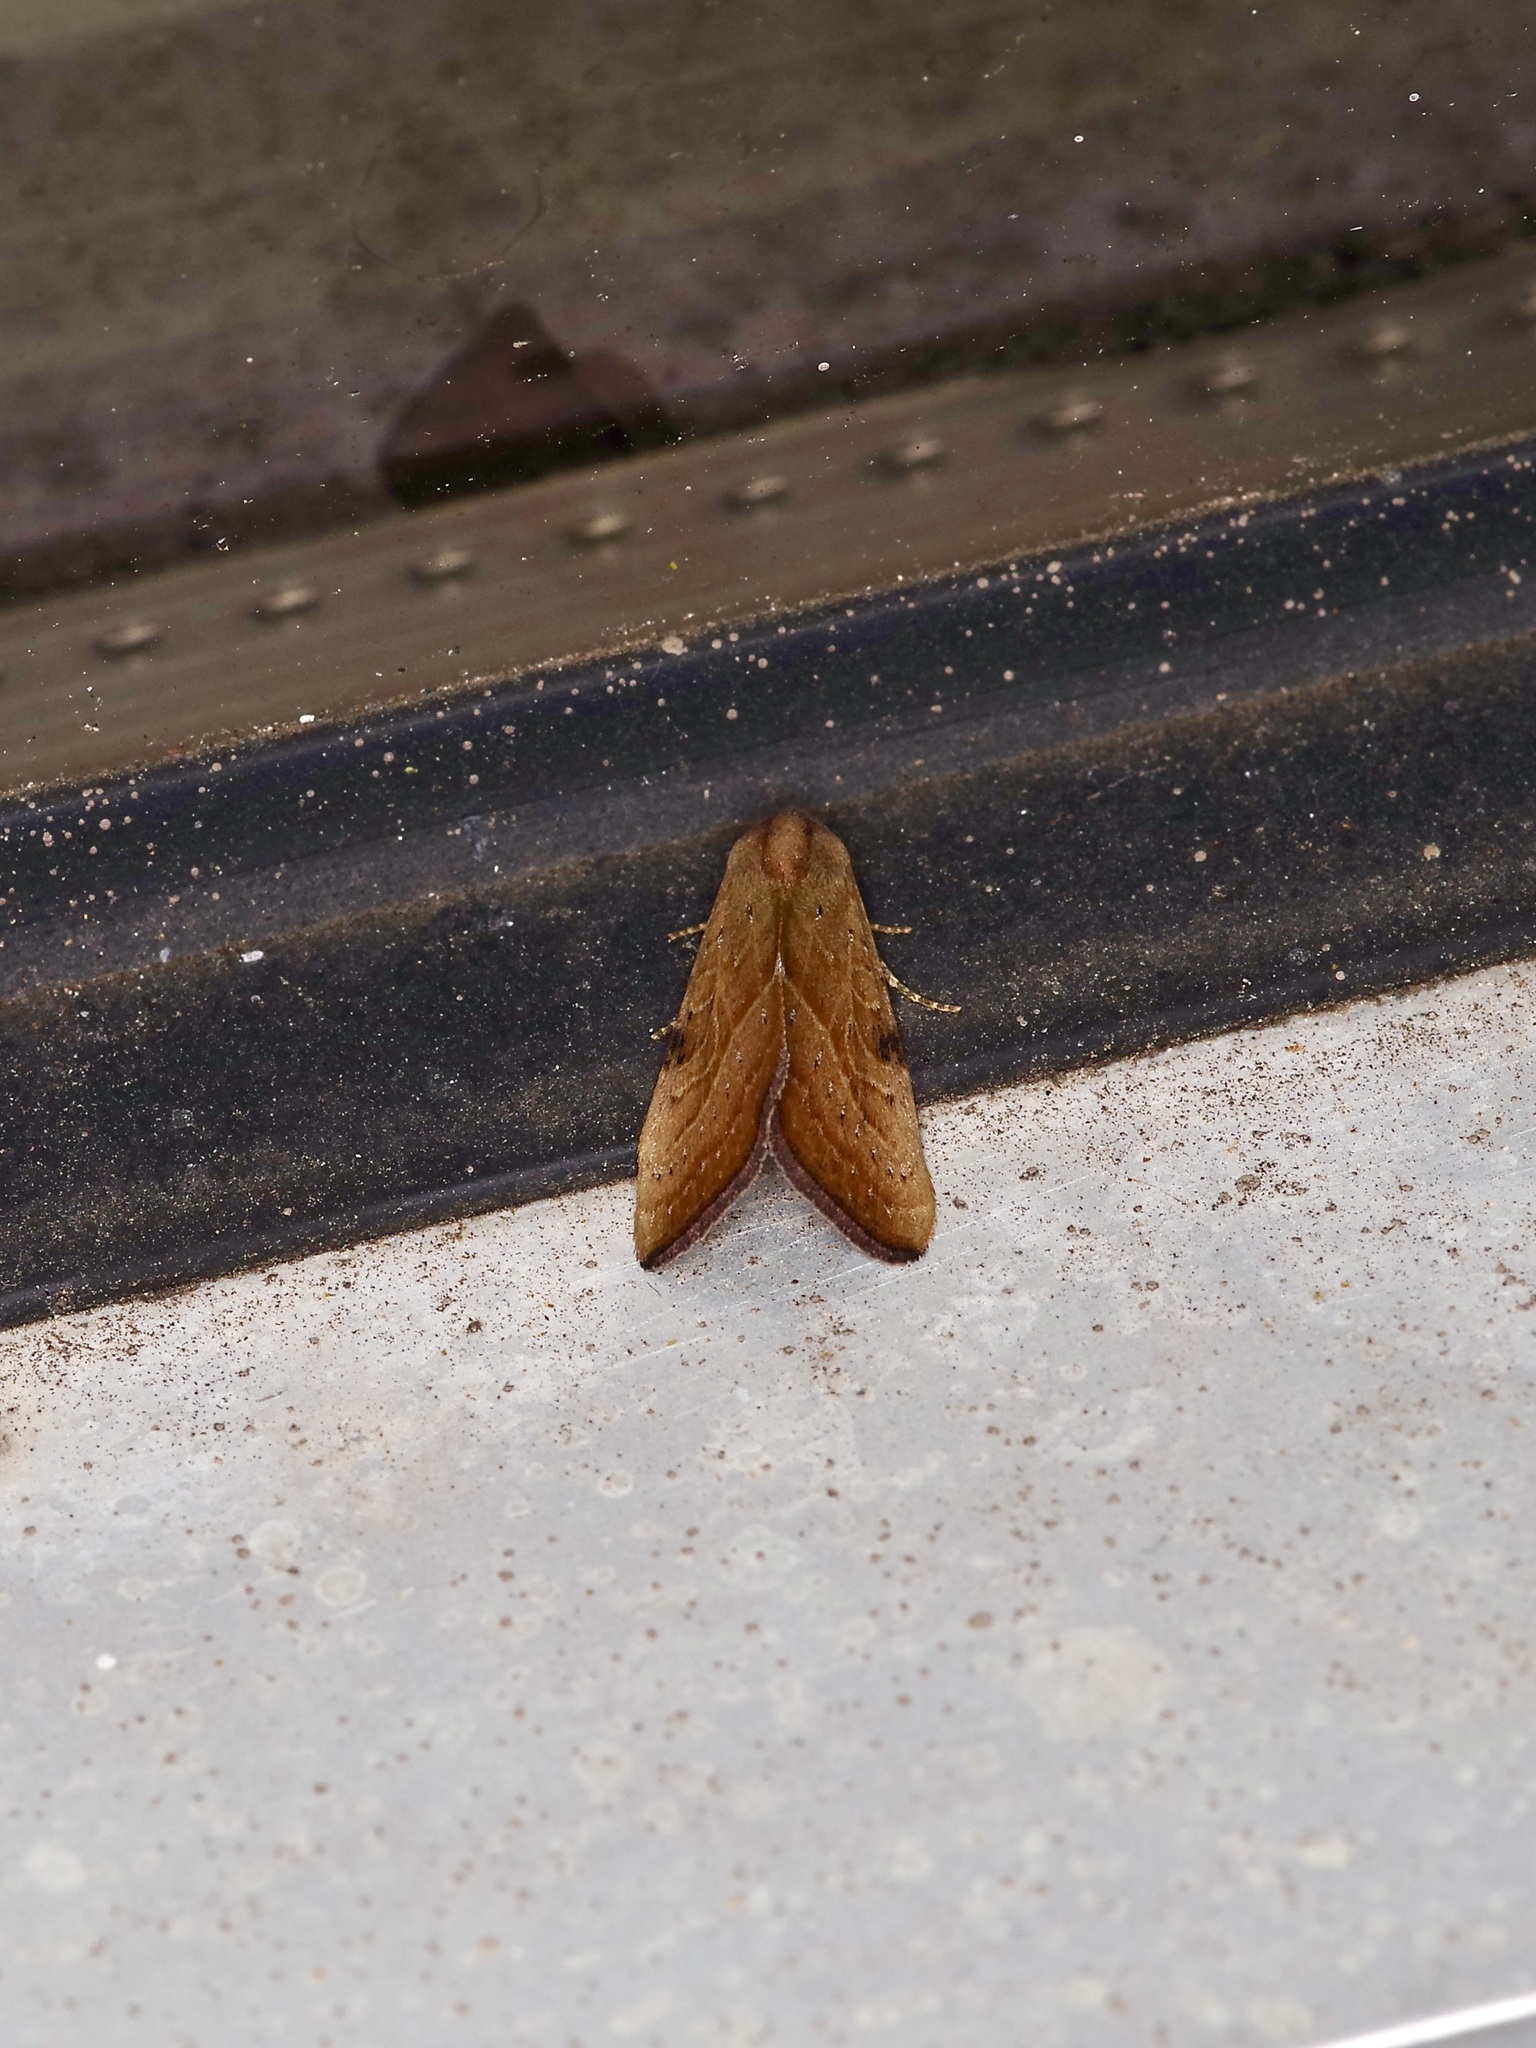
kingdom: Animalia
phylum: Arthropoda
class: Insecta
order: Lepidoptera
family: Noctuidae
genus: Galgula
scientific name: Galgula partita
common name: Wedgeling
